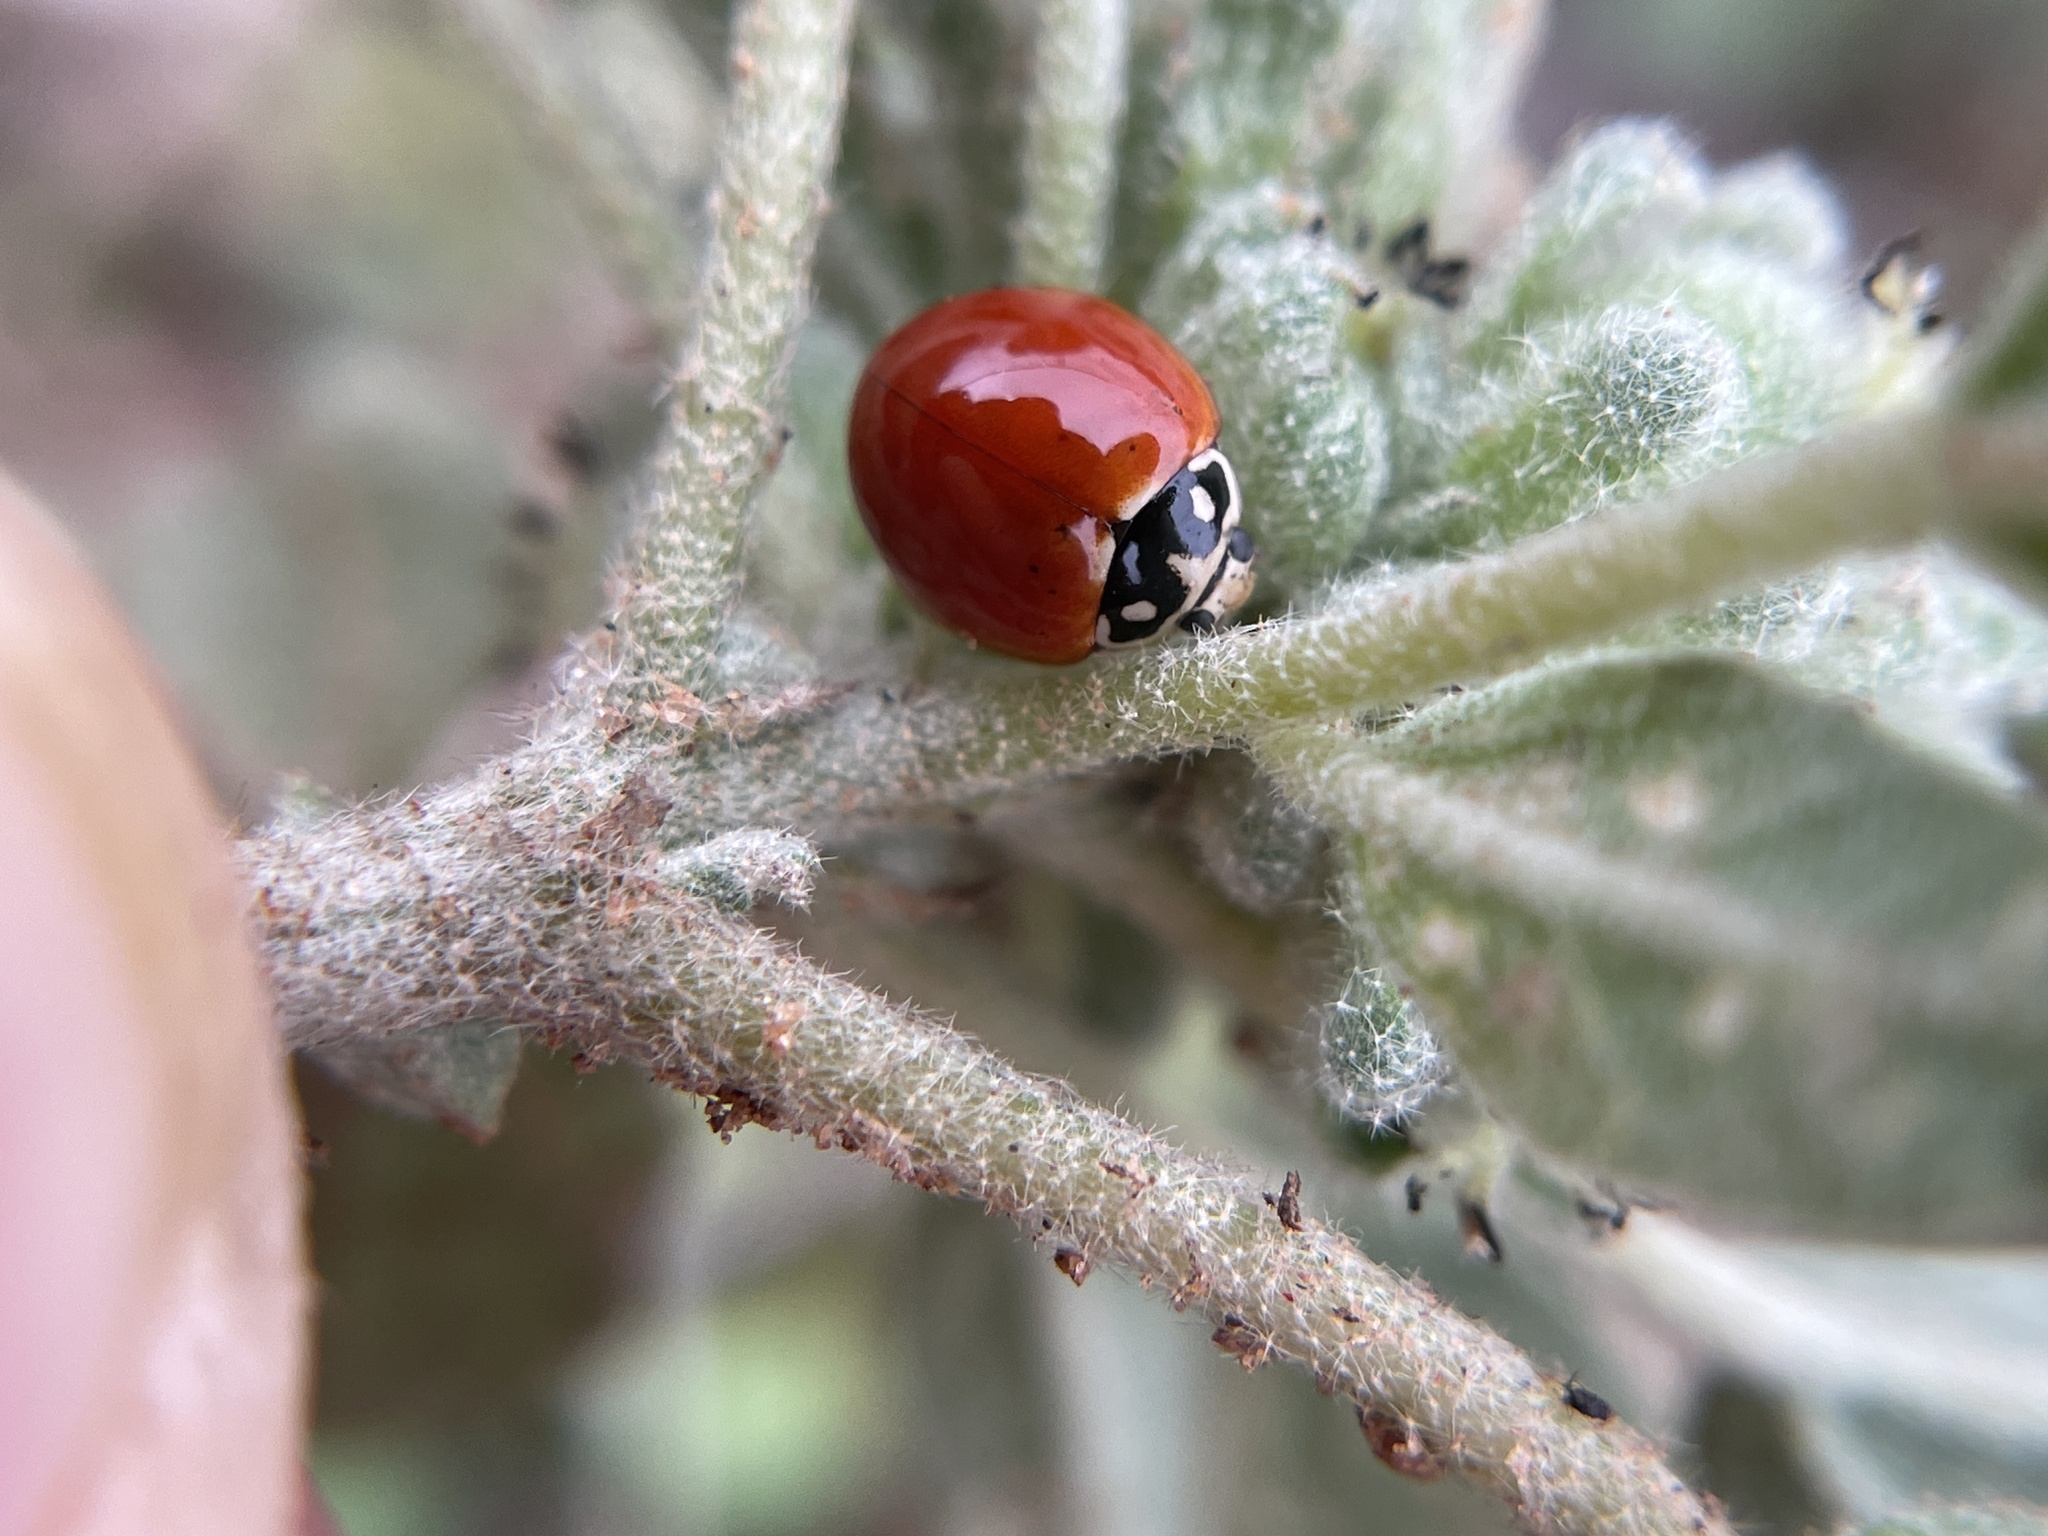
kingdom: Animalia
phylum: Arthropoda
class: Insecta
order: Coleoptera
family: Coccinellidae
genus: Cycloneda
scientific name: Cycloneda sanguinea
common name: Ladybird beetle
